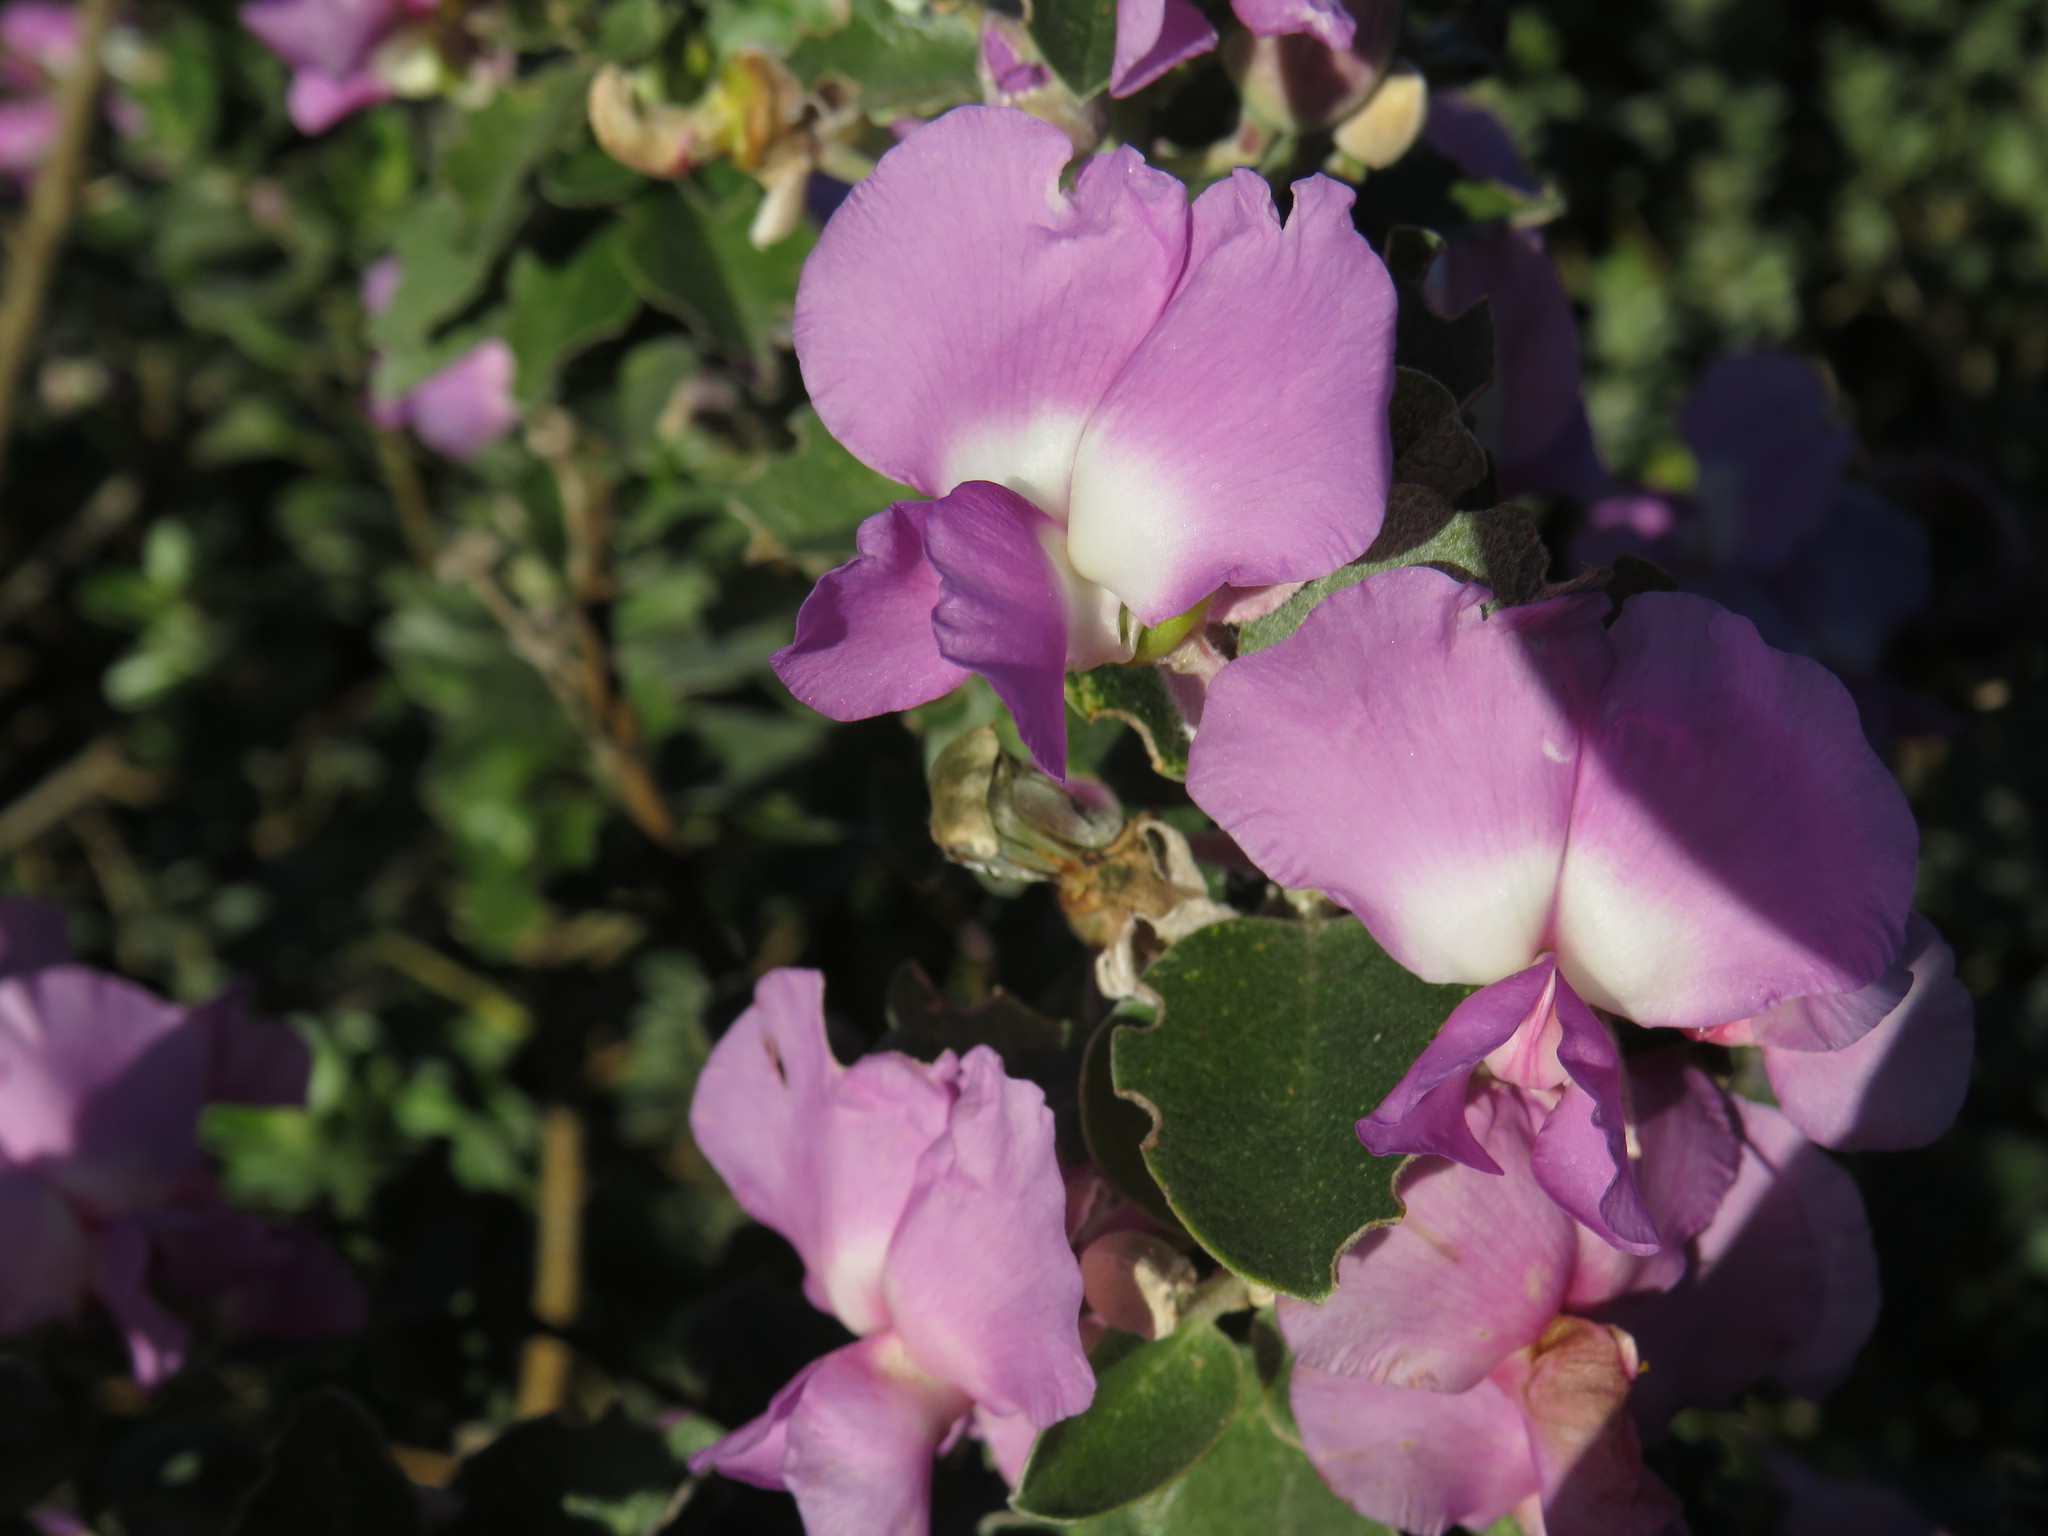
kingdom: Plantae
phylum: Tracheophyta
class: Magnoliopsida
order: Fabales
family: Fabaceae
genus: Podalyria
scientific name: Podalyria calyptrata
